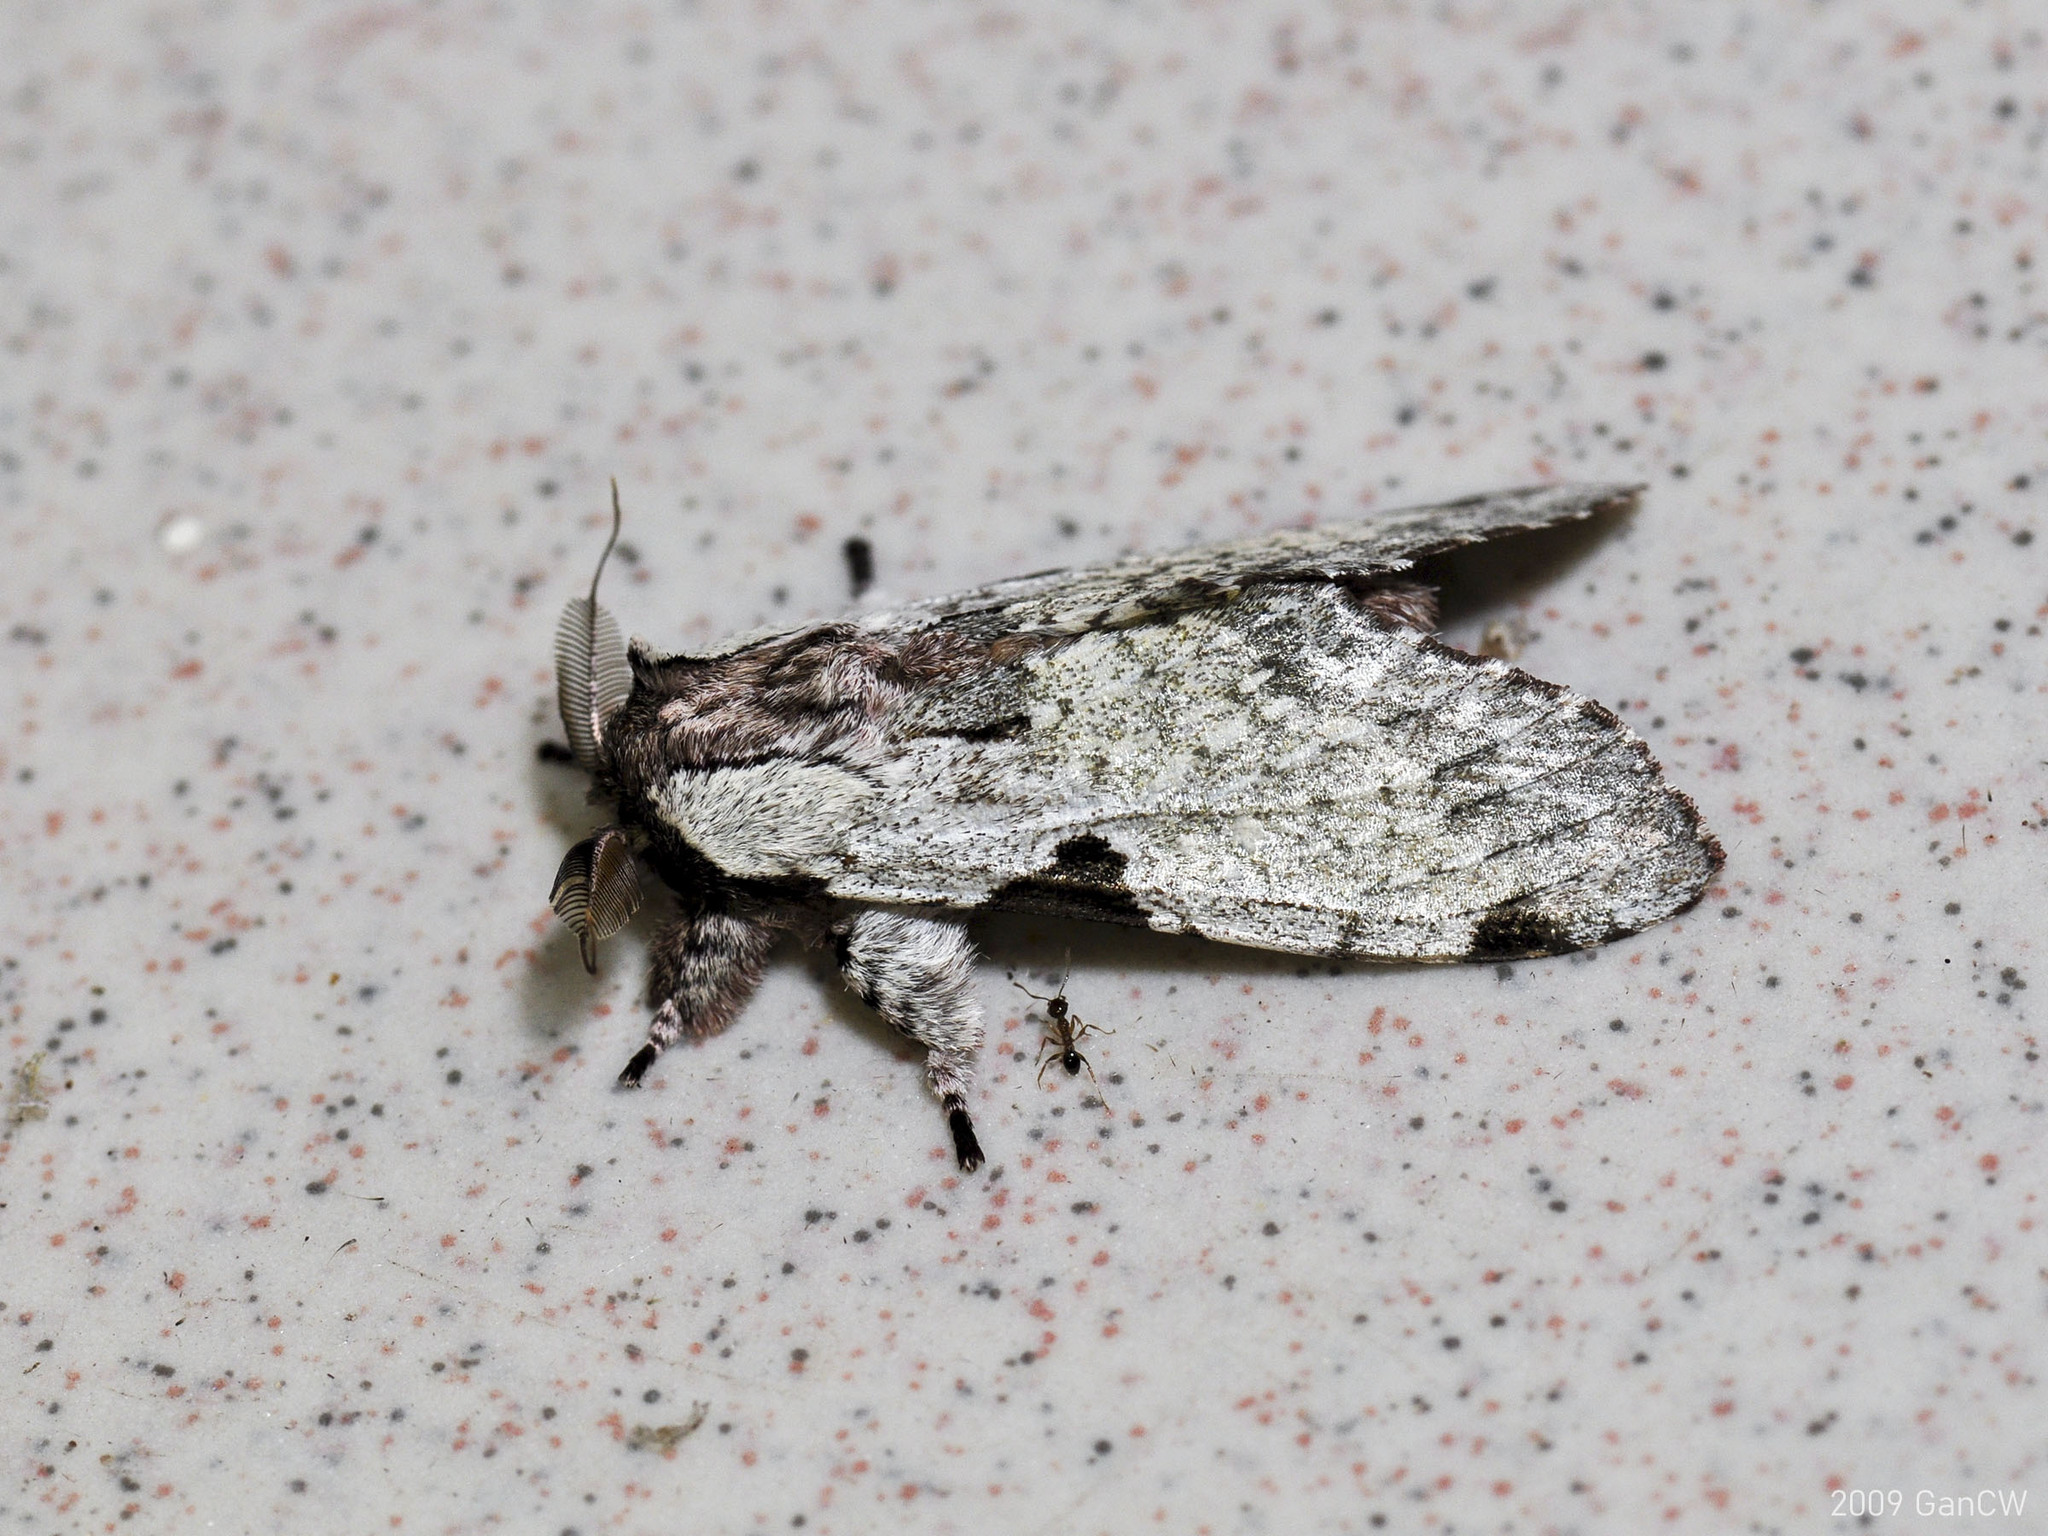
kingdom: Animalia
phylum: Arthropoda
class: Insecta
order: Lepidoptera
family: Notodontidae
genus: Harpyia
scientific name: Harpyia microsticta
